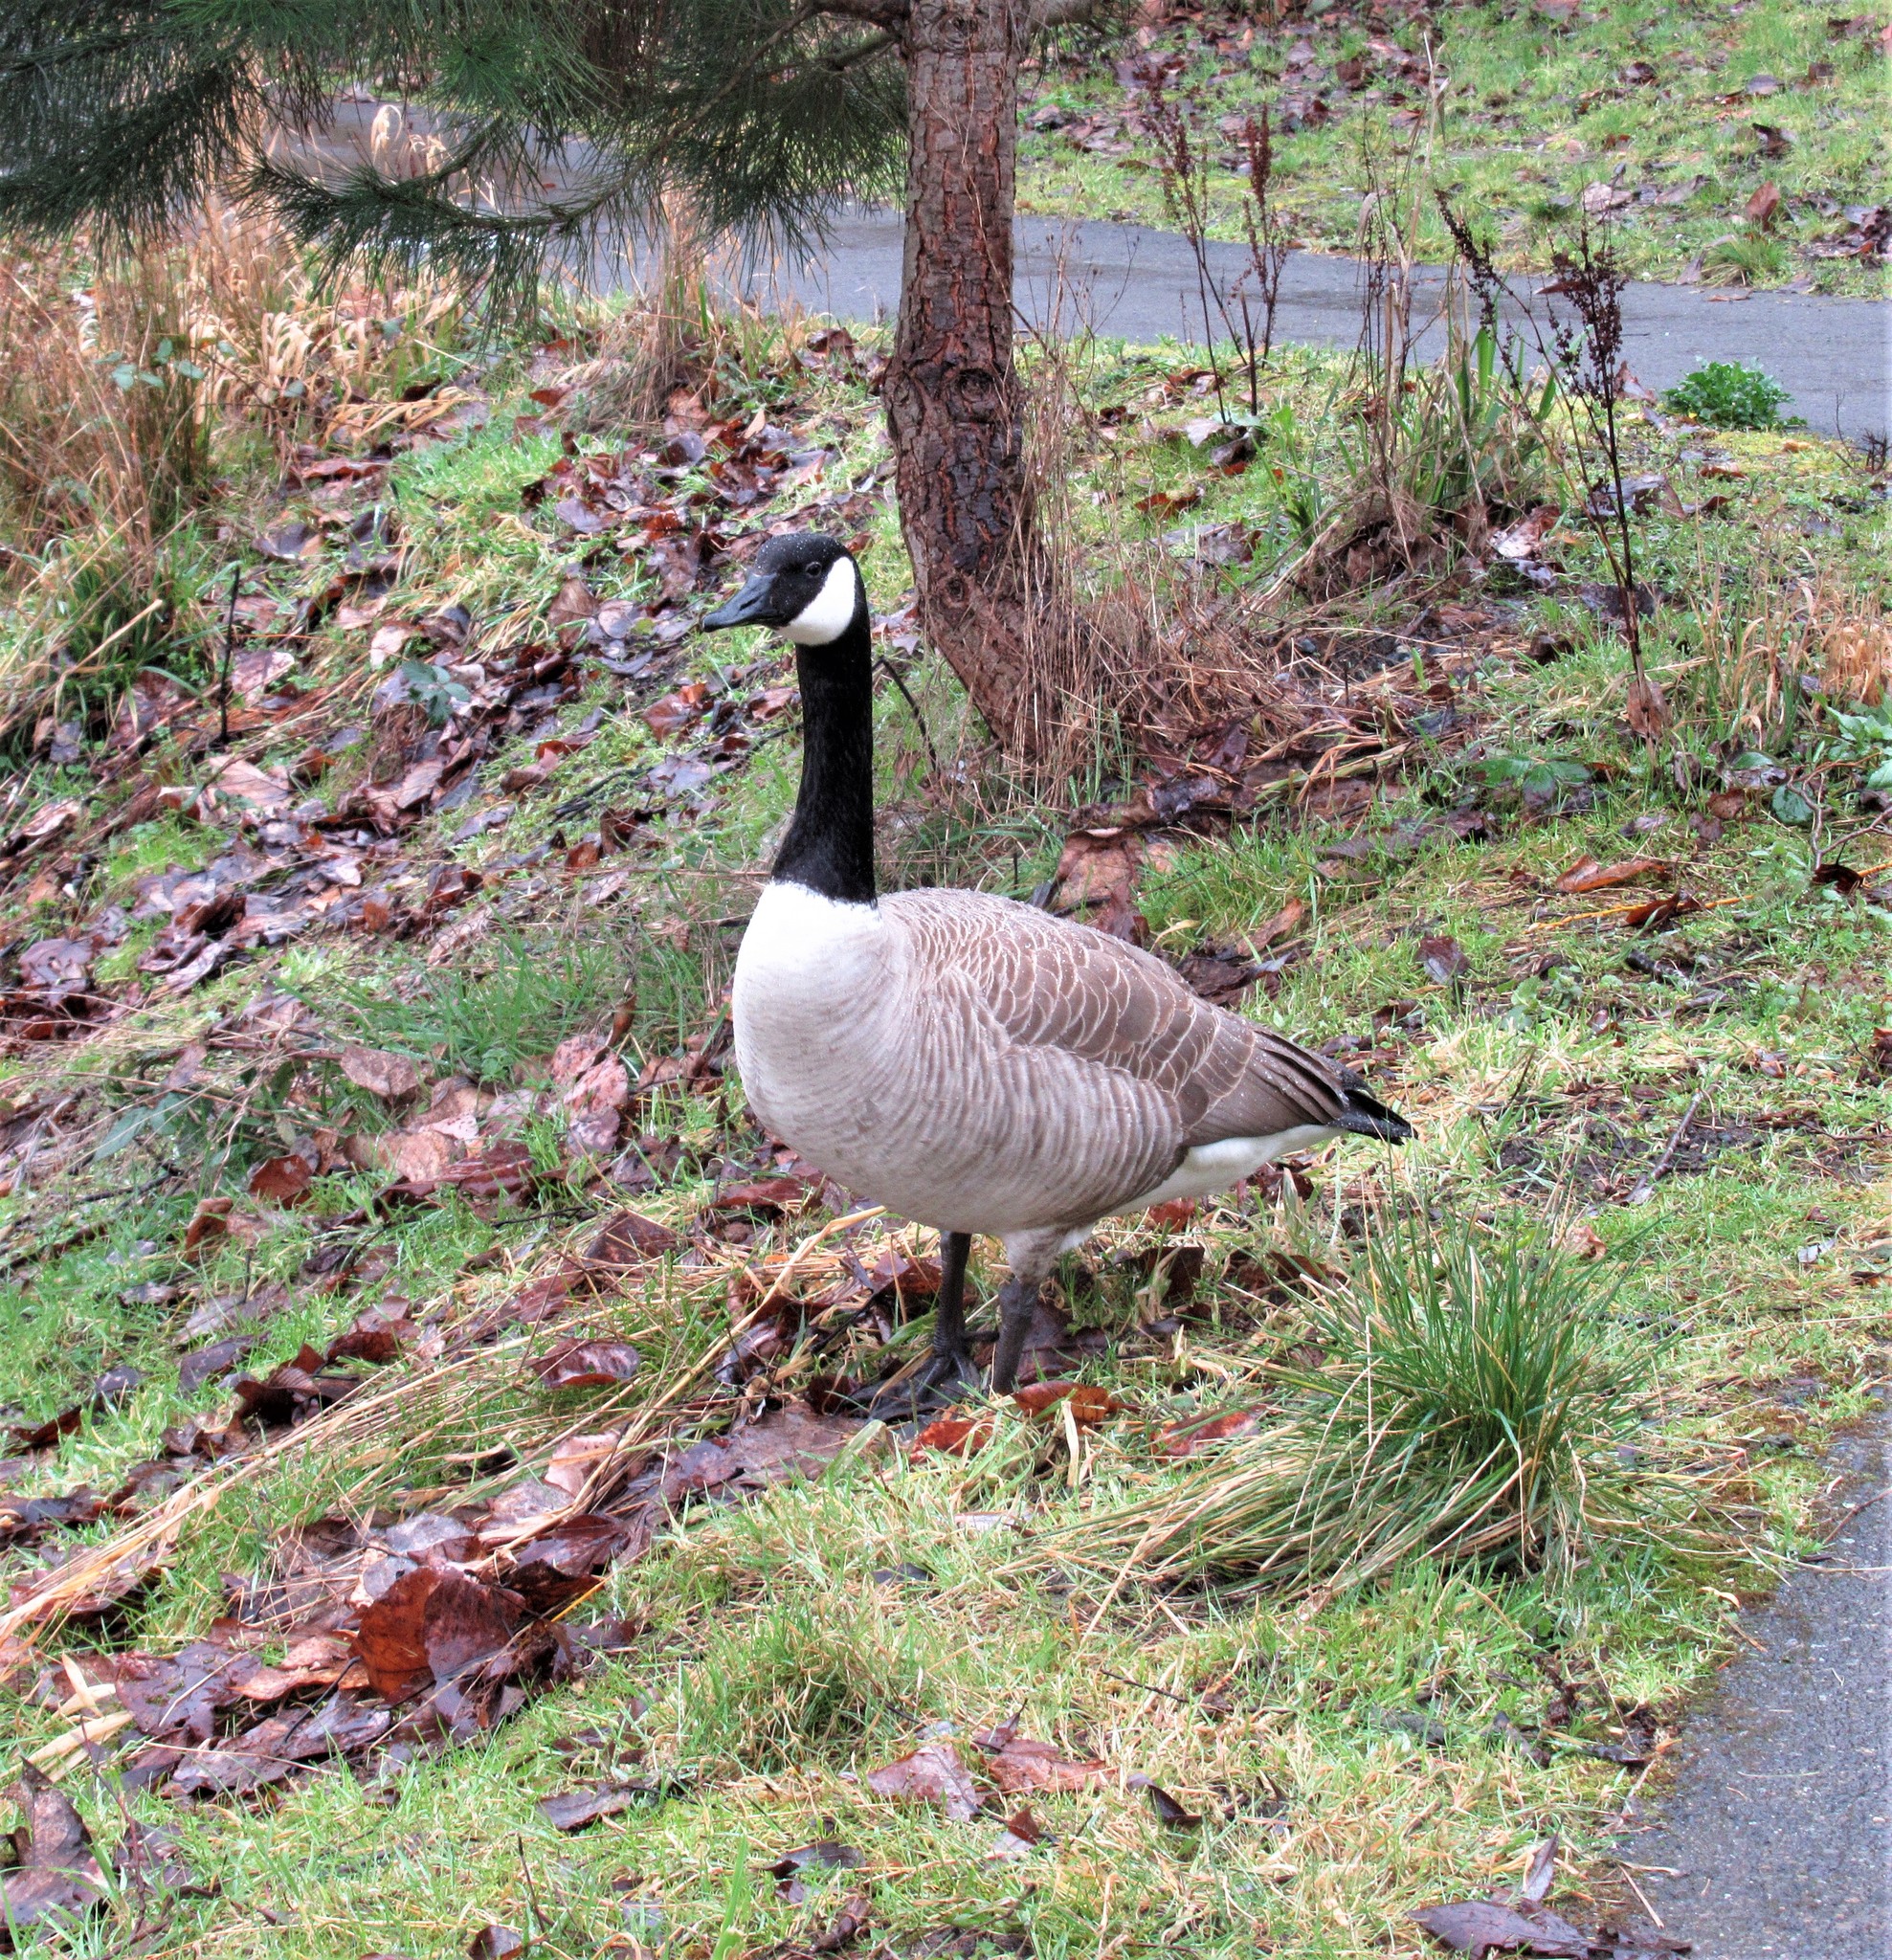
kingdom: Animalia
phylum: Chordata
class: Aves
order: Anseriformes
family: Anatidae
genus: Branta
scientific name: Branta canadensis
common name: Canada goose
